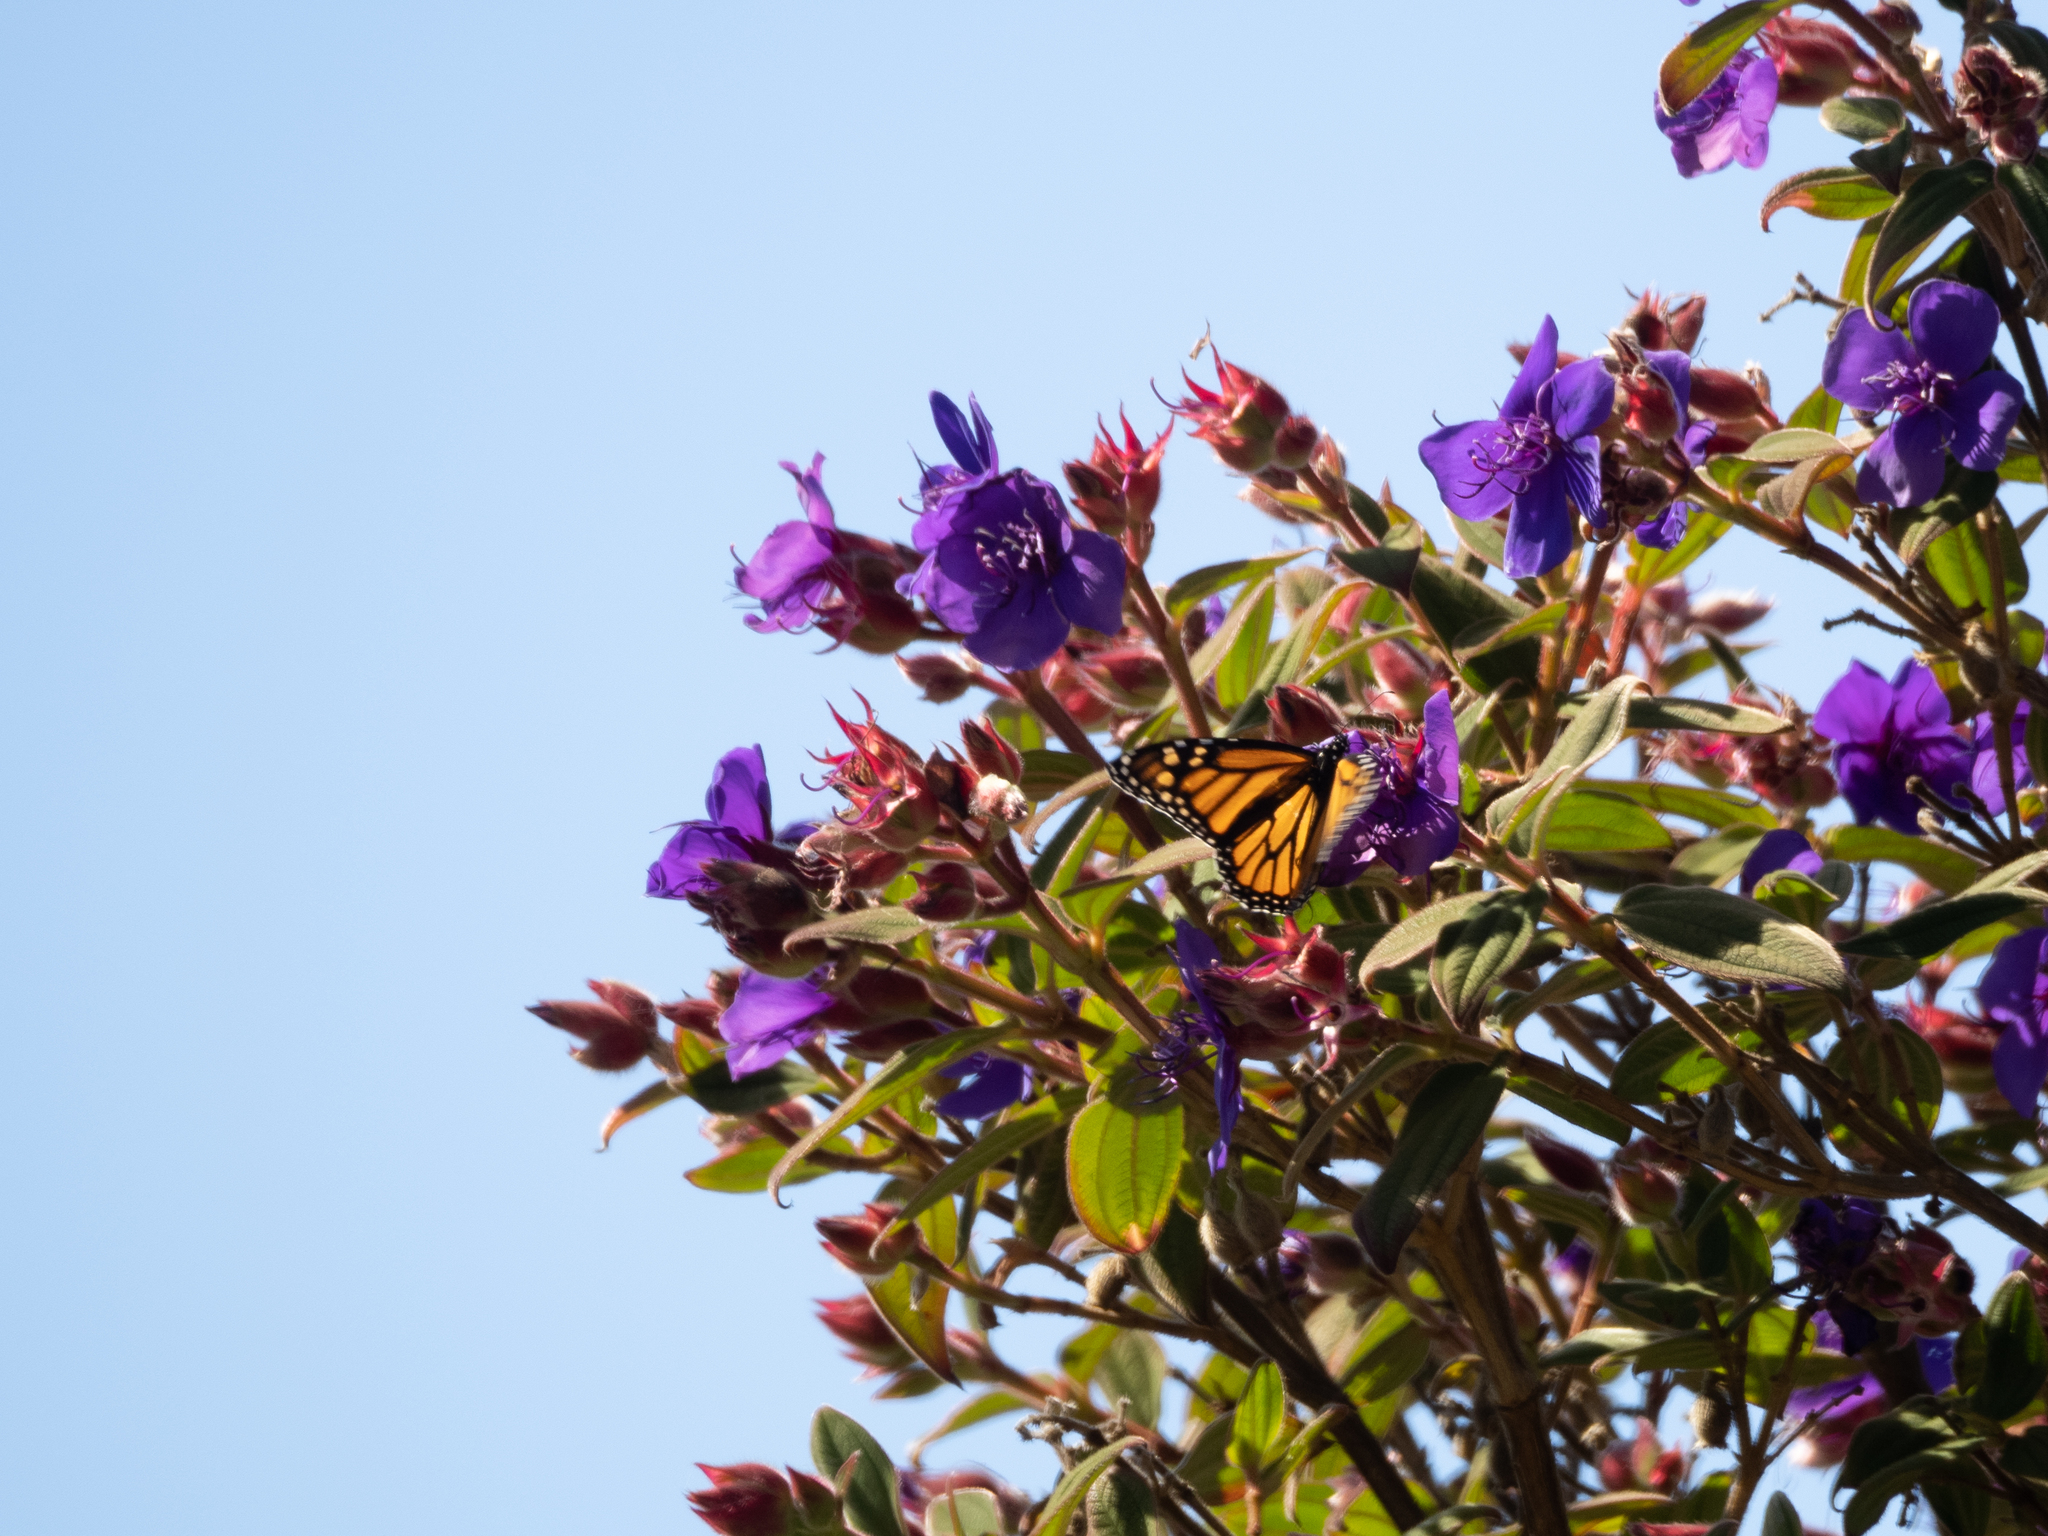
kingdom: Animalia
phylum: Arthropoda
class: Insecta
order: Lepidoptera
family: Nymphalidae
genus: Danaus
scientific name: Danaus plexippus
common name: Monarch
